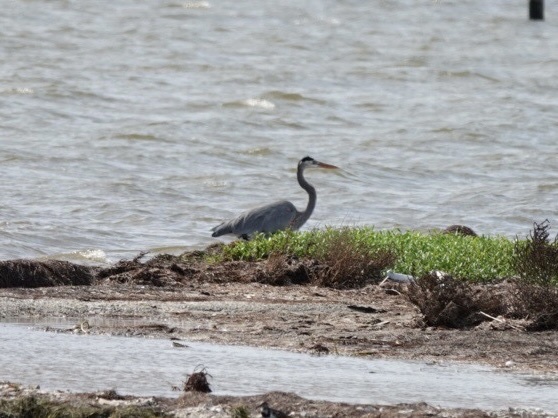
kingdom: Animalia
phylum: Chordata
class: Aves
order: Pelecaniformes
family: Ardeidae
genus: Ardea
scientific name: Ardea herodias
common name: Great blue heron
